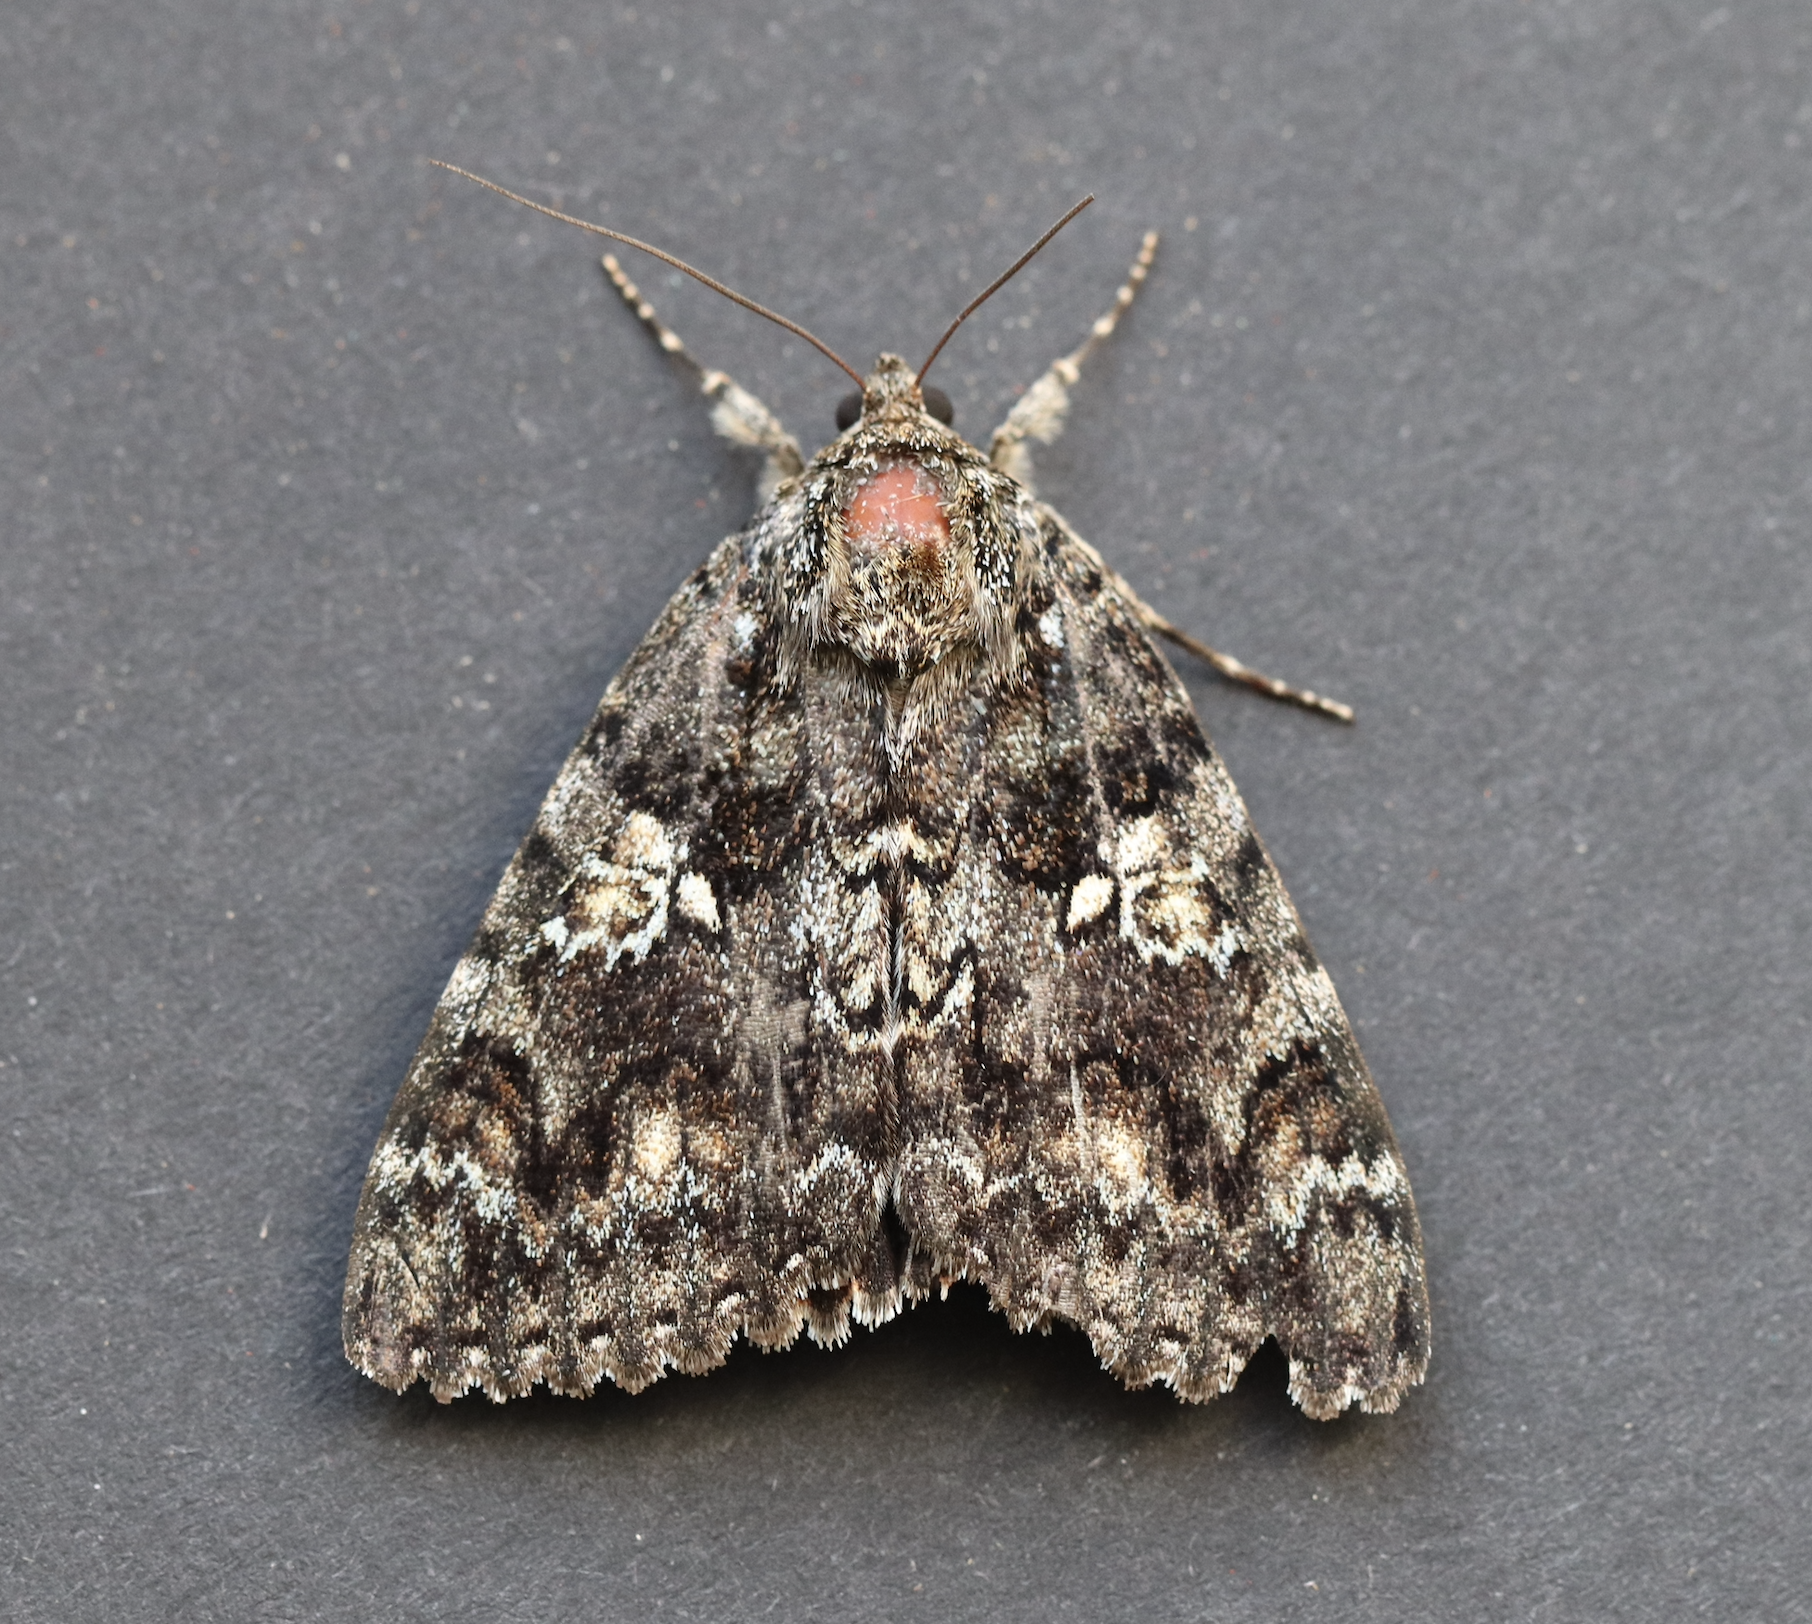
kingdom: Animalia
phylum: Arthropoda
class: Insecta
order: Lepidoptera
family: Erebidae
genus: Catocala
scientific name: Catocala sponsa
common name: Dark crimson underwing
